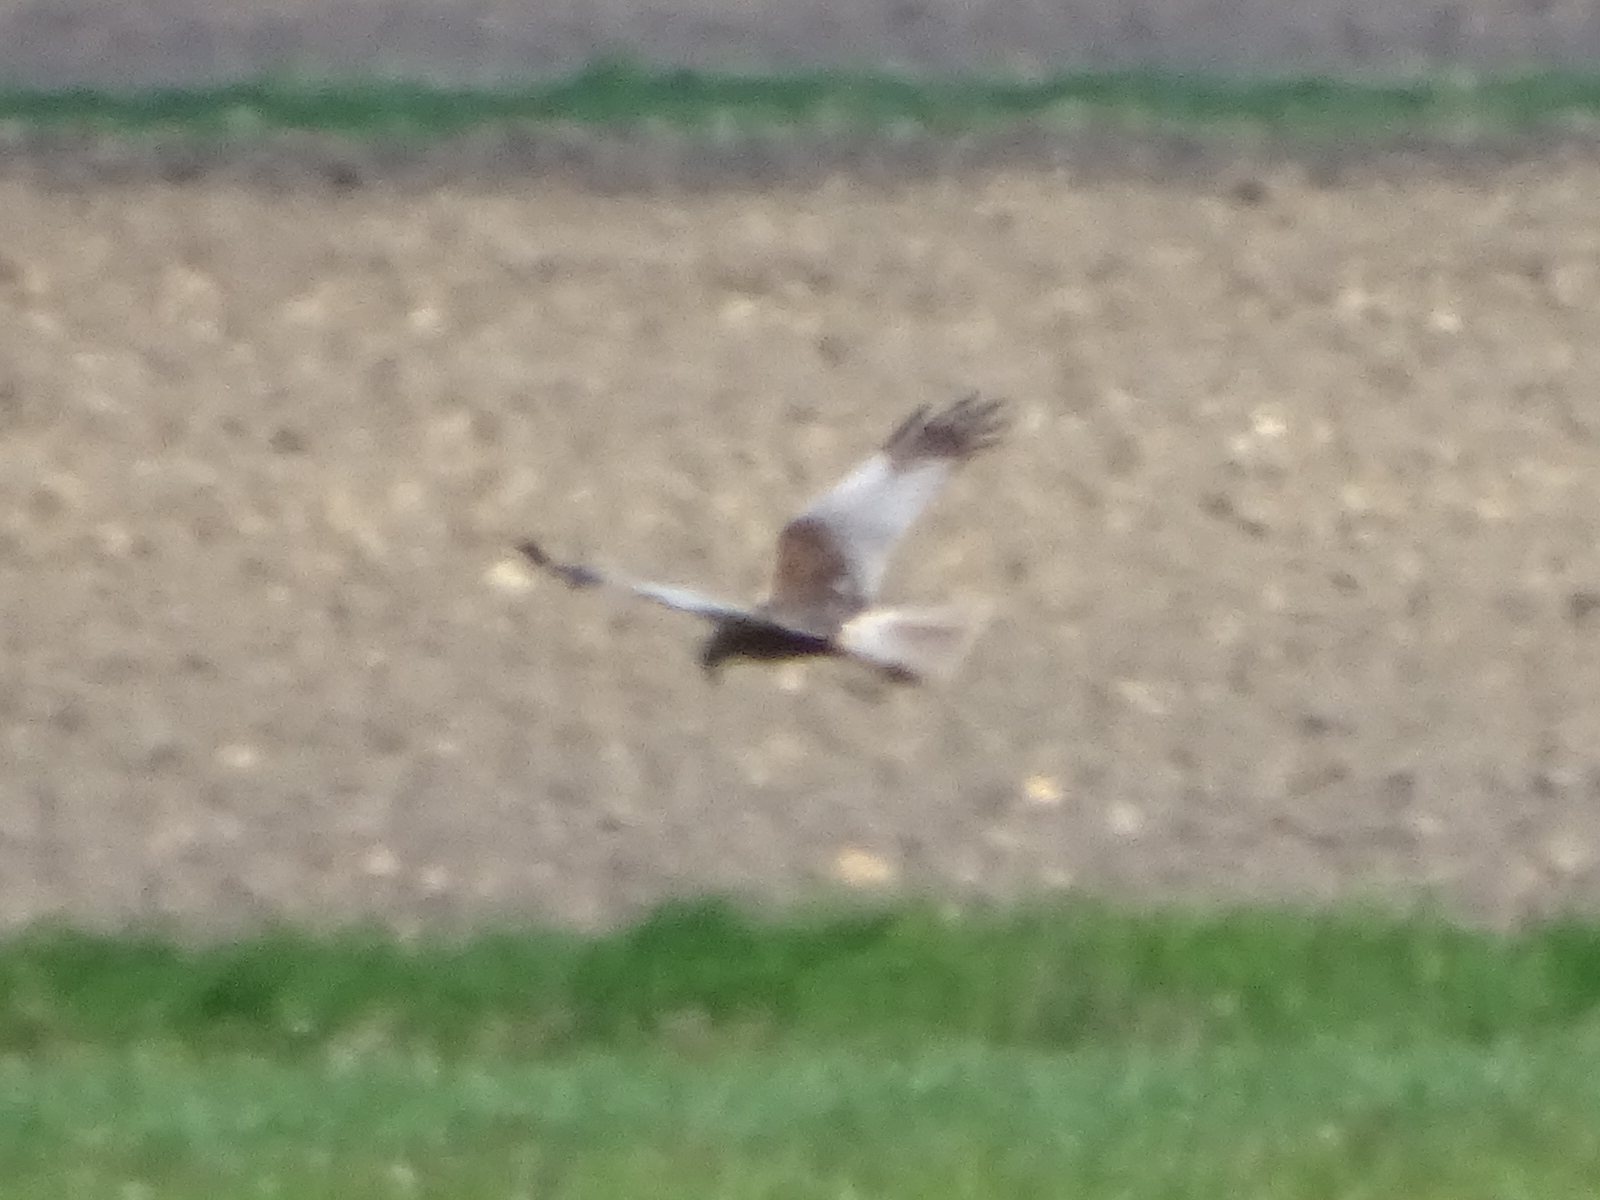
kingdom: Animalia
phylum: Chordata
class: Aves
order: Accipitriformes
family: Accipitridae
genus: Circus
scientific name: Circus aeruginosus
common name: Western marsh harrier
